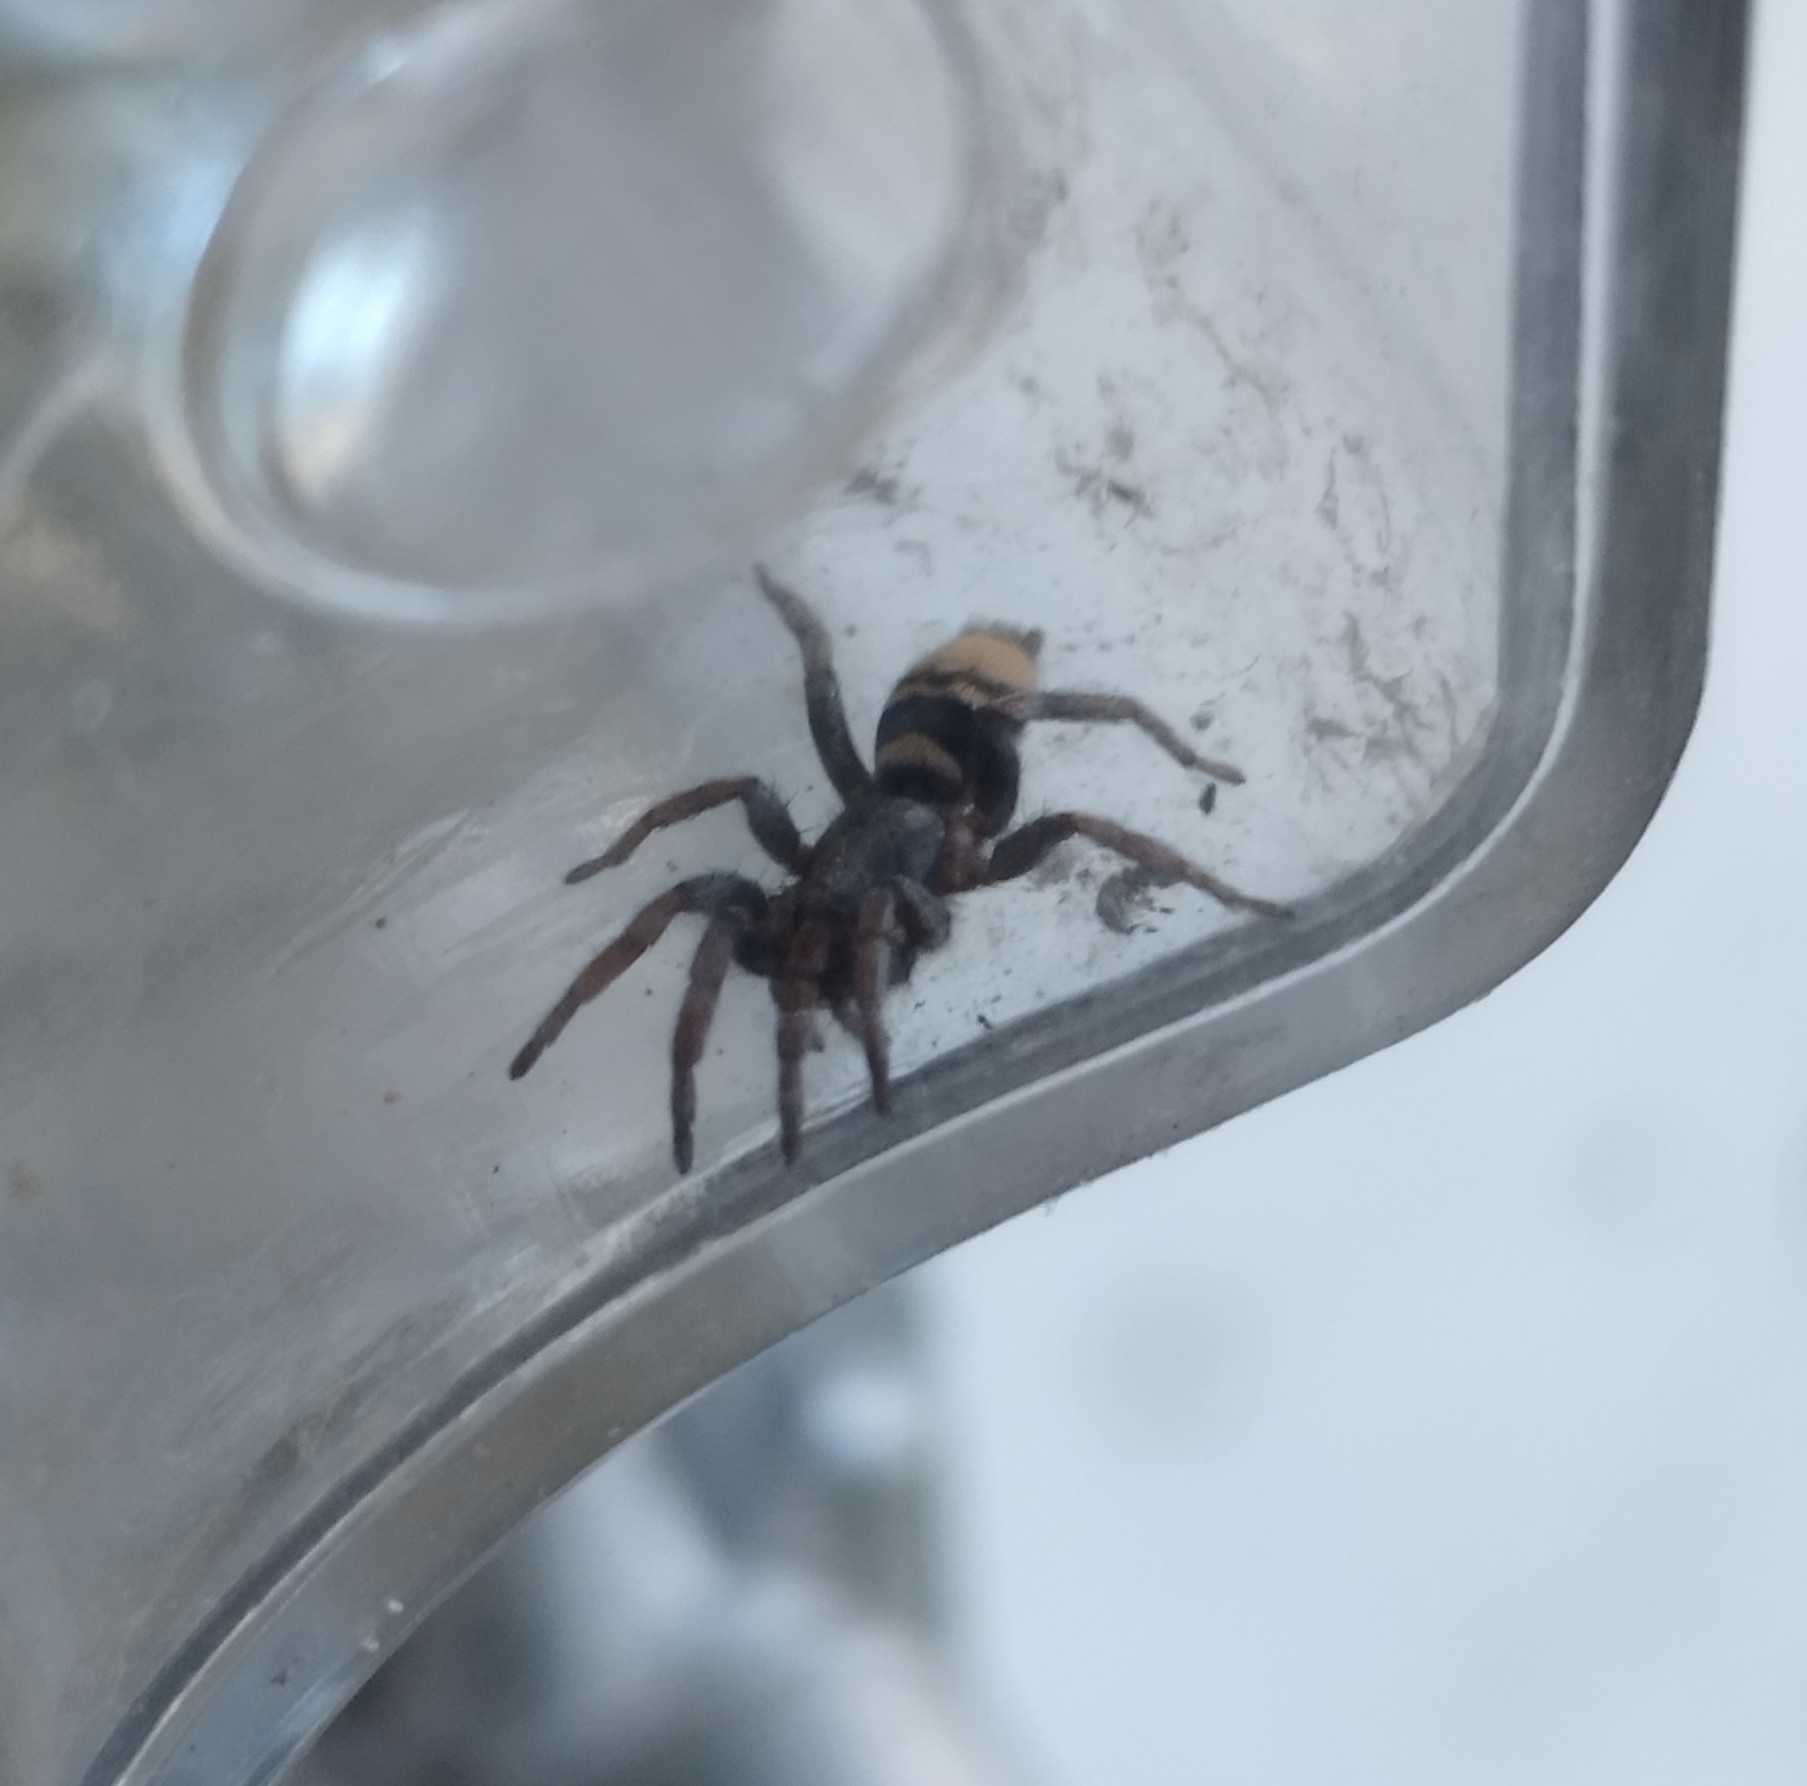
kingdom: Animalia
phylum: Arthropoda
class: Arachnida
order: Araneae
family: Gnaphosidae
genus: Latonigena
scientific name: Latonigena auricomis
